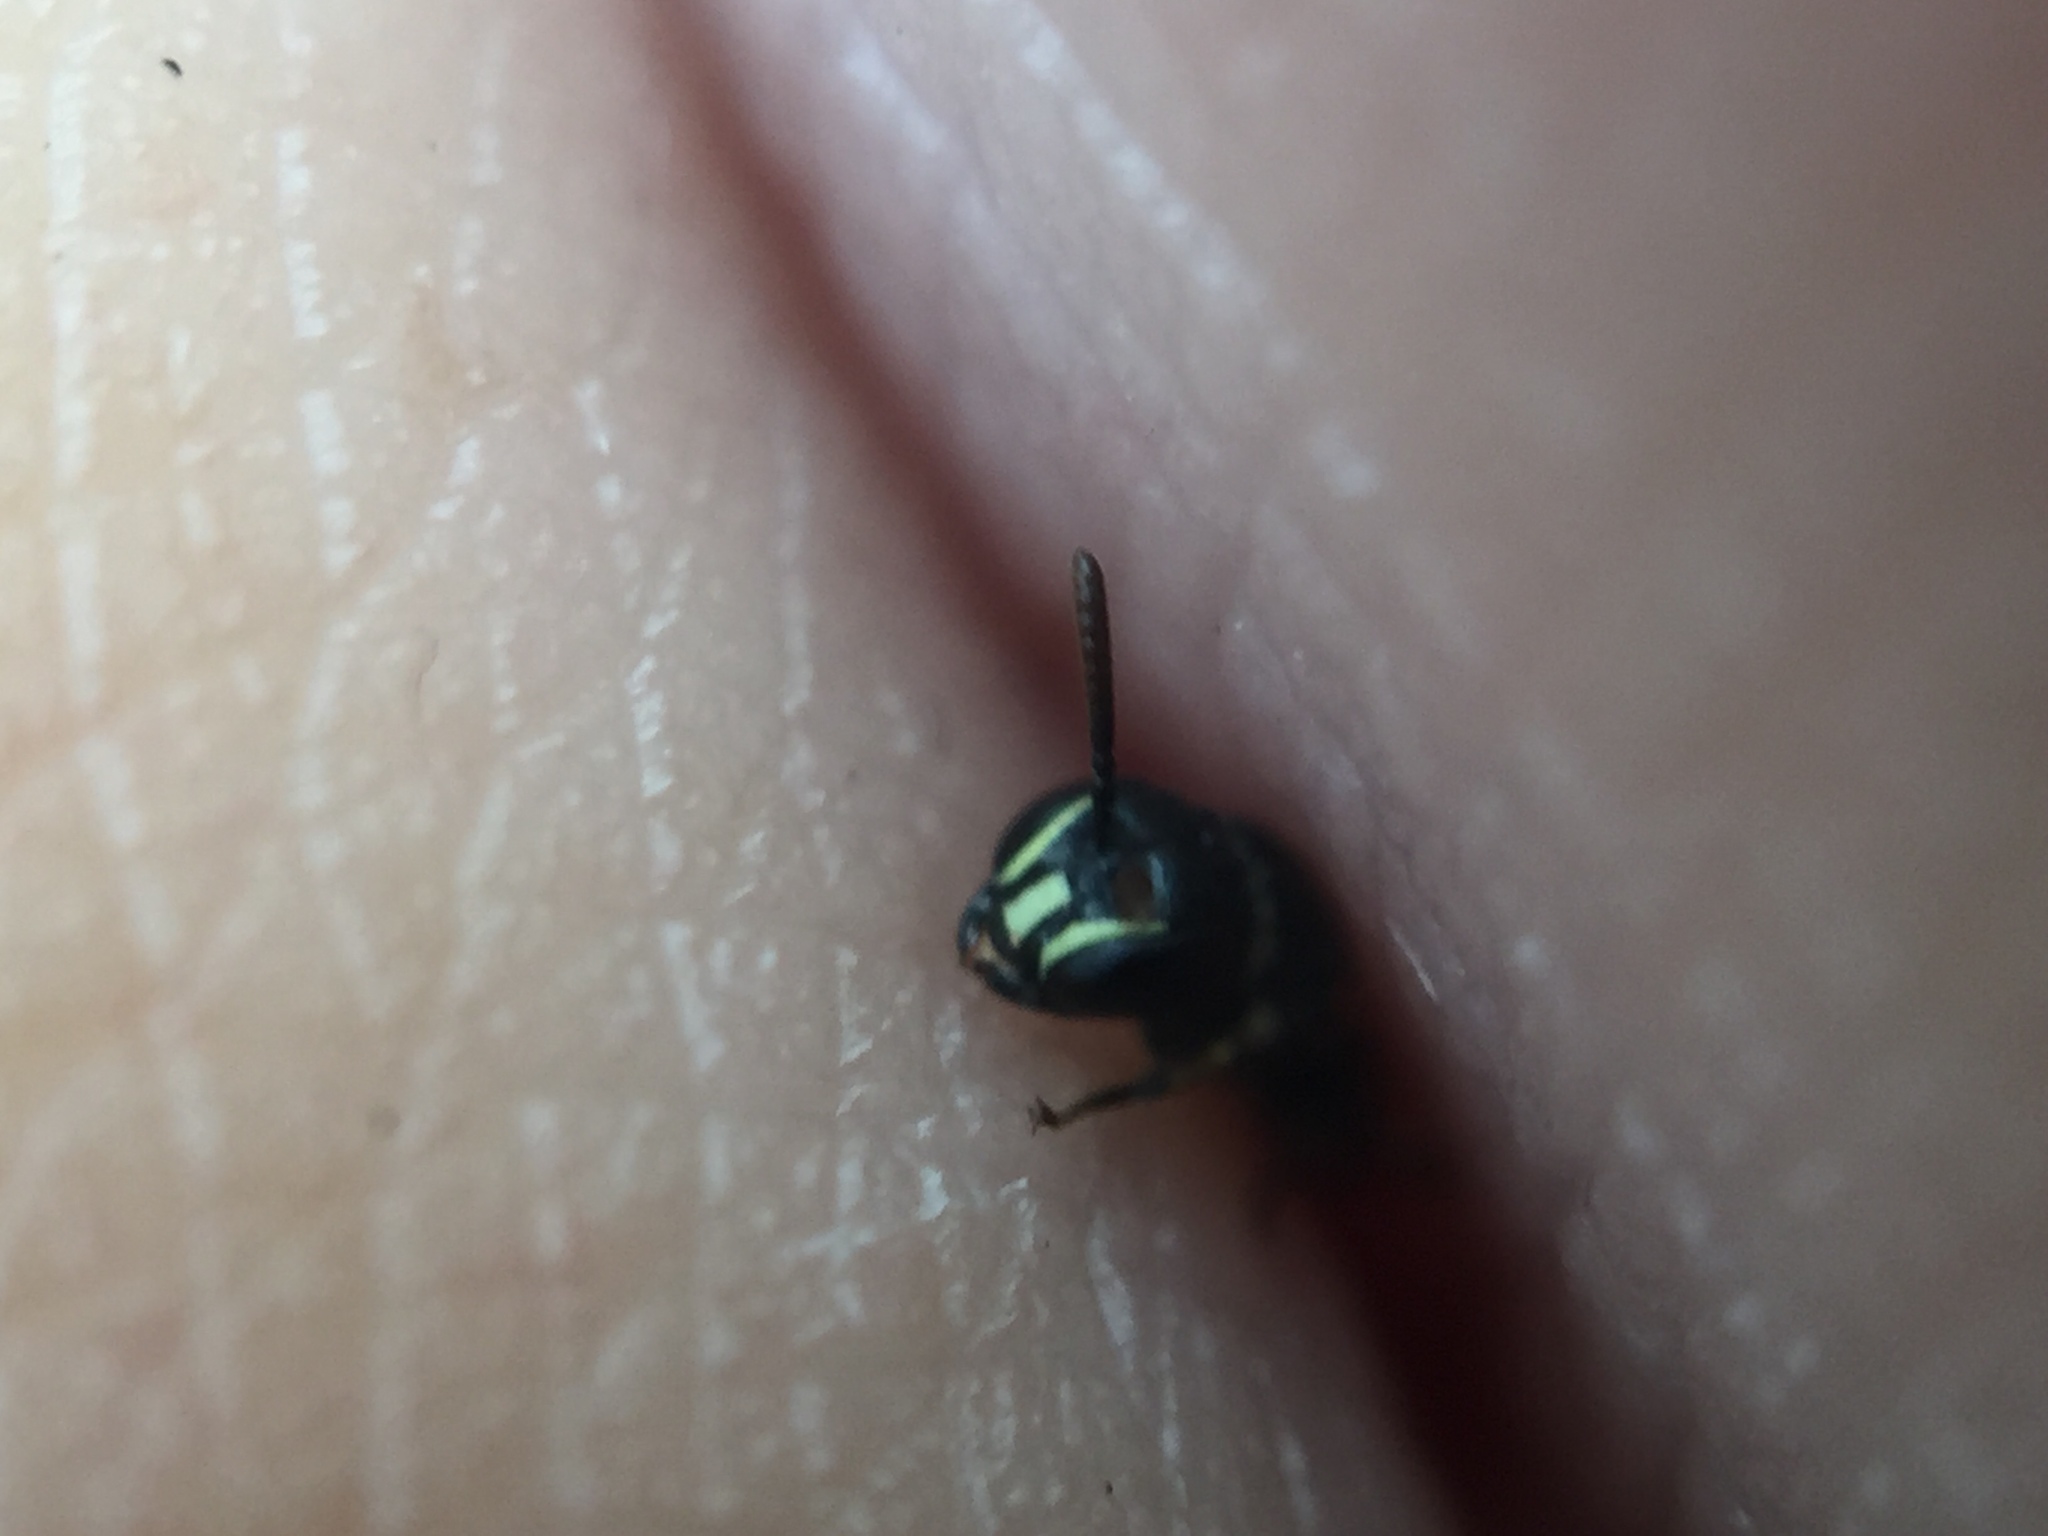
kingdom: Animalia
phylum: Arthropoda
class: Insecta
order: Hymenoptera
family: Colletidae
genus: Hylaeus
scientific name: Hylaeus perhumilis
